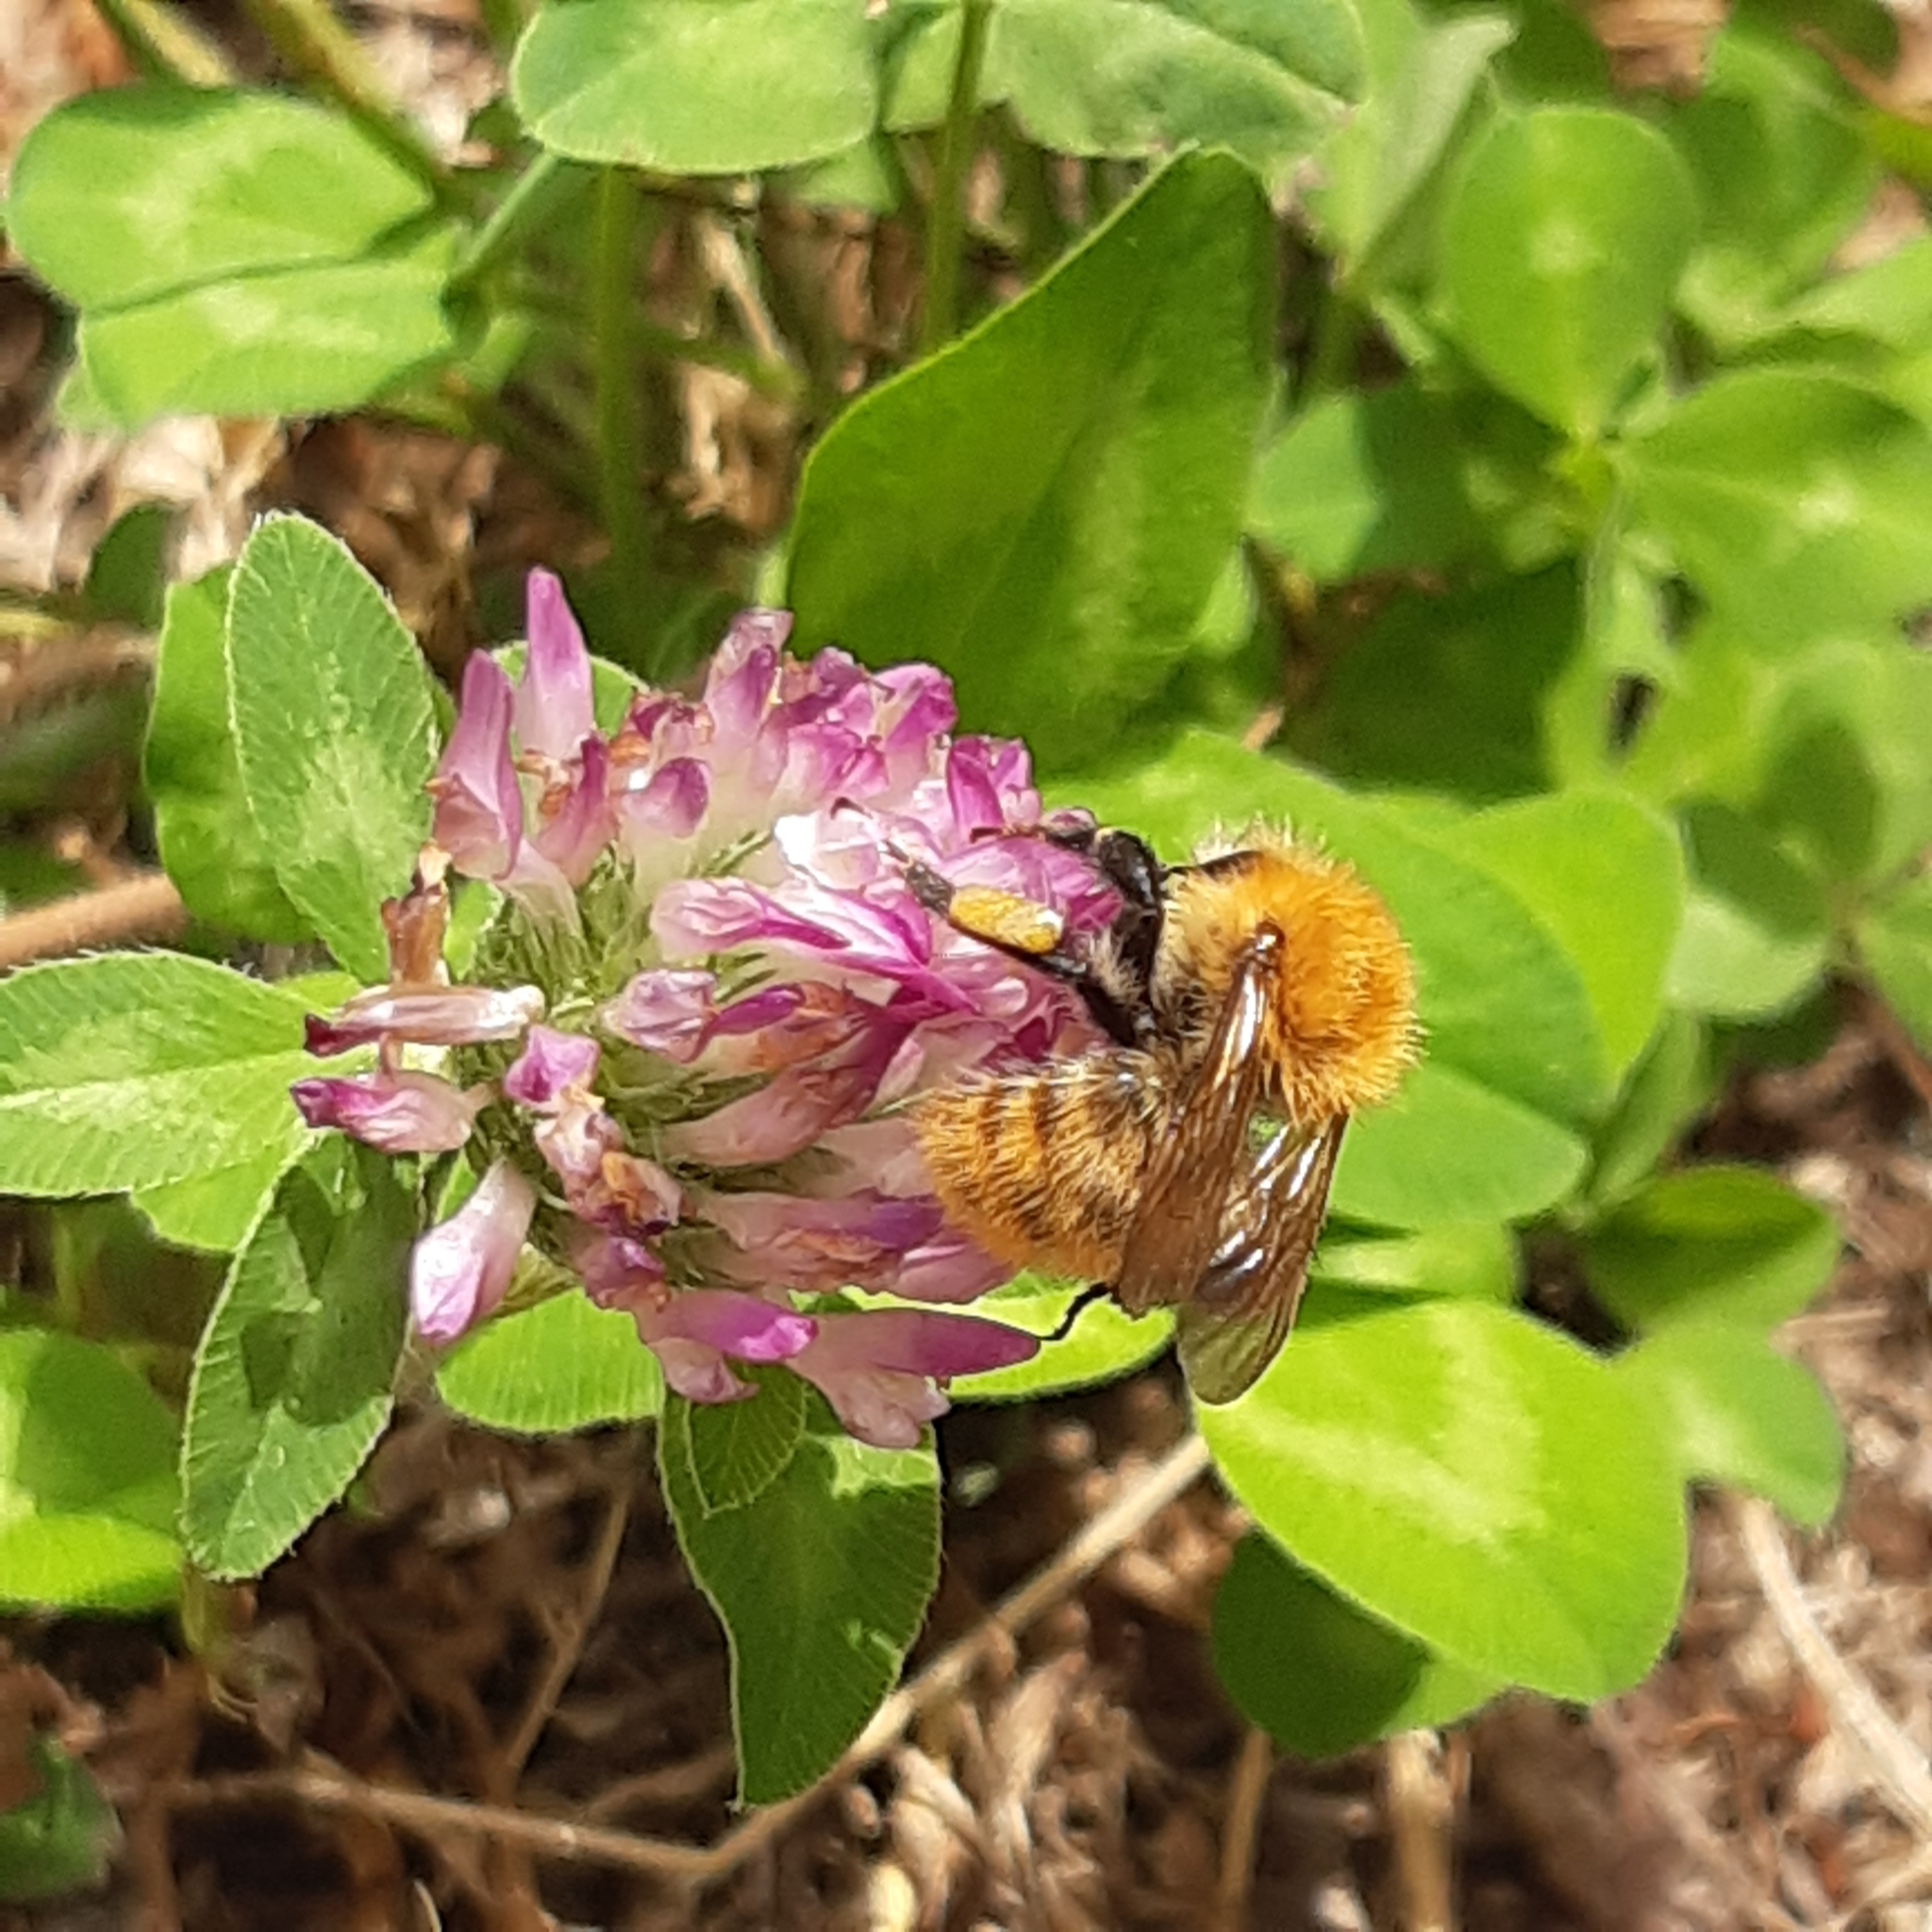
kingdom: Animalia
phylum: Arthropoda
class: Insecta
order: Hymenoptera
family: Apidae
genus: Bombus
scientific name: Bombus pascuorum
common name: Common carder bee
